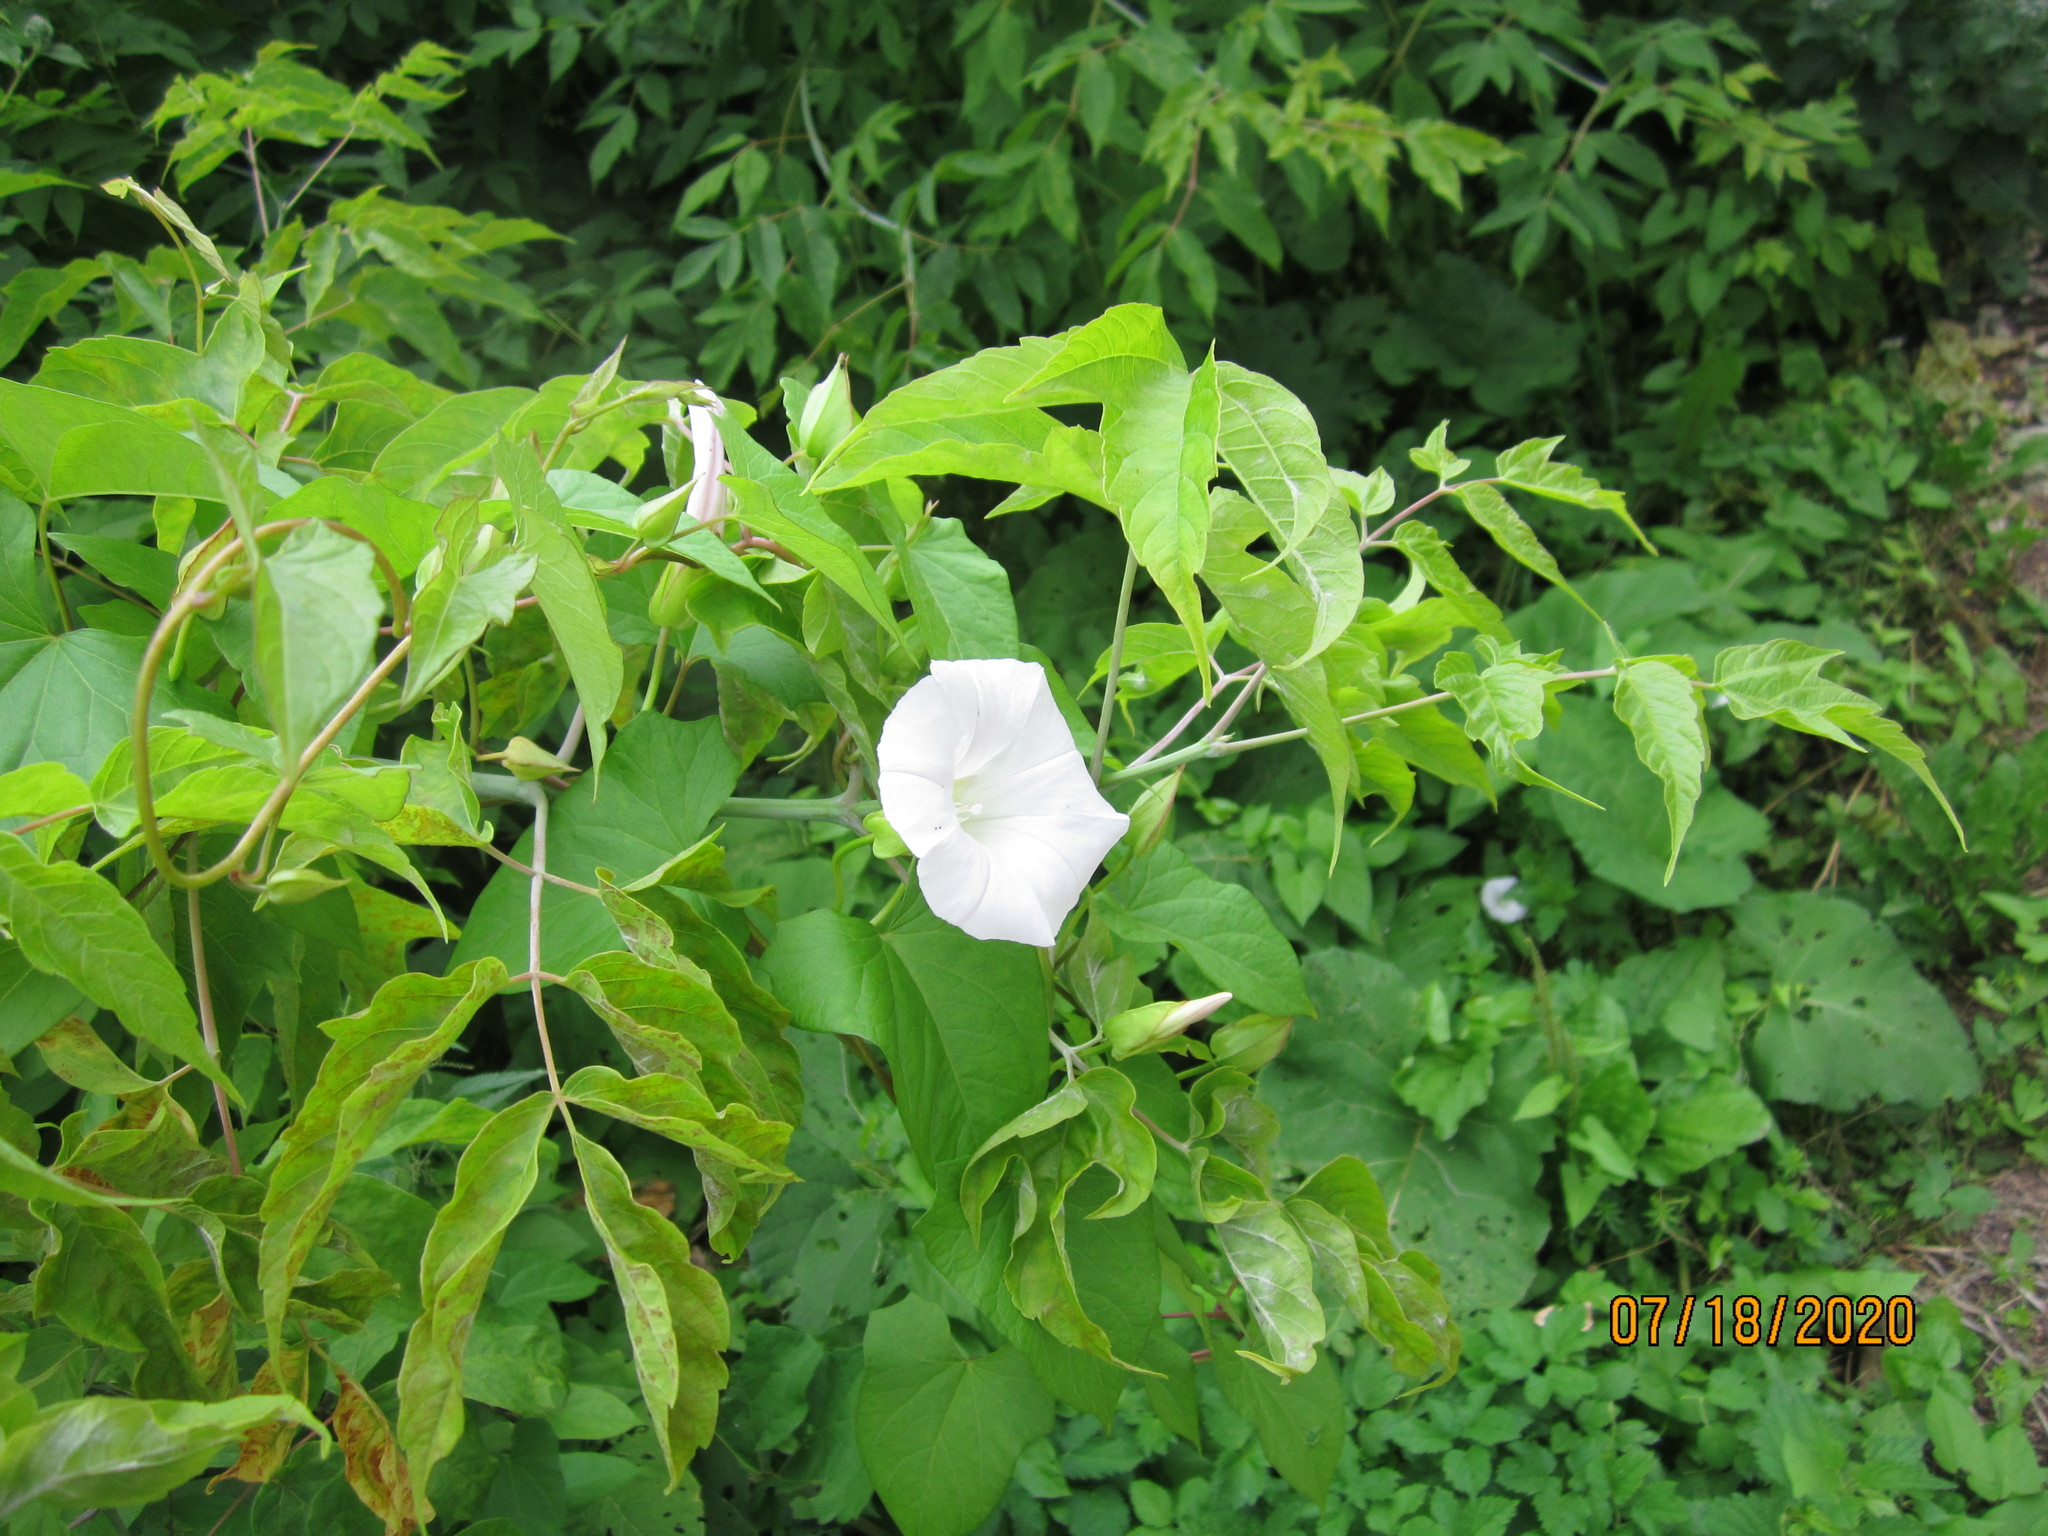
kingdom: Plantae
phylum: Tracheophyta
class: Magnoliopsida
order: Solanales
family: Convolvulaceae
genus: Calystegia
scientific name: Calystegia sepium
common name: Hedge bindweed
